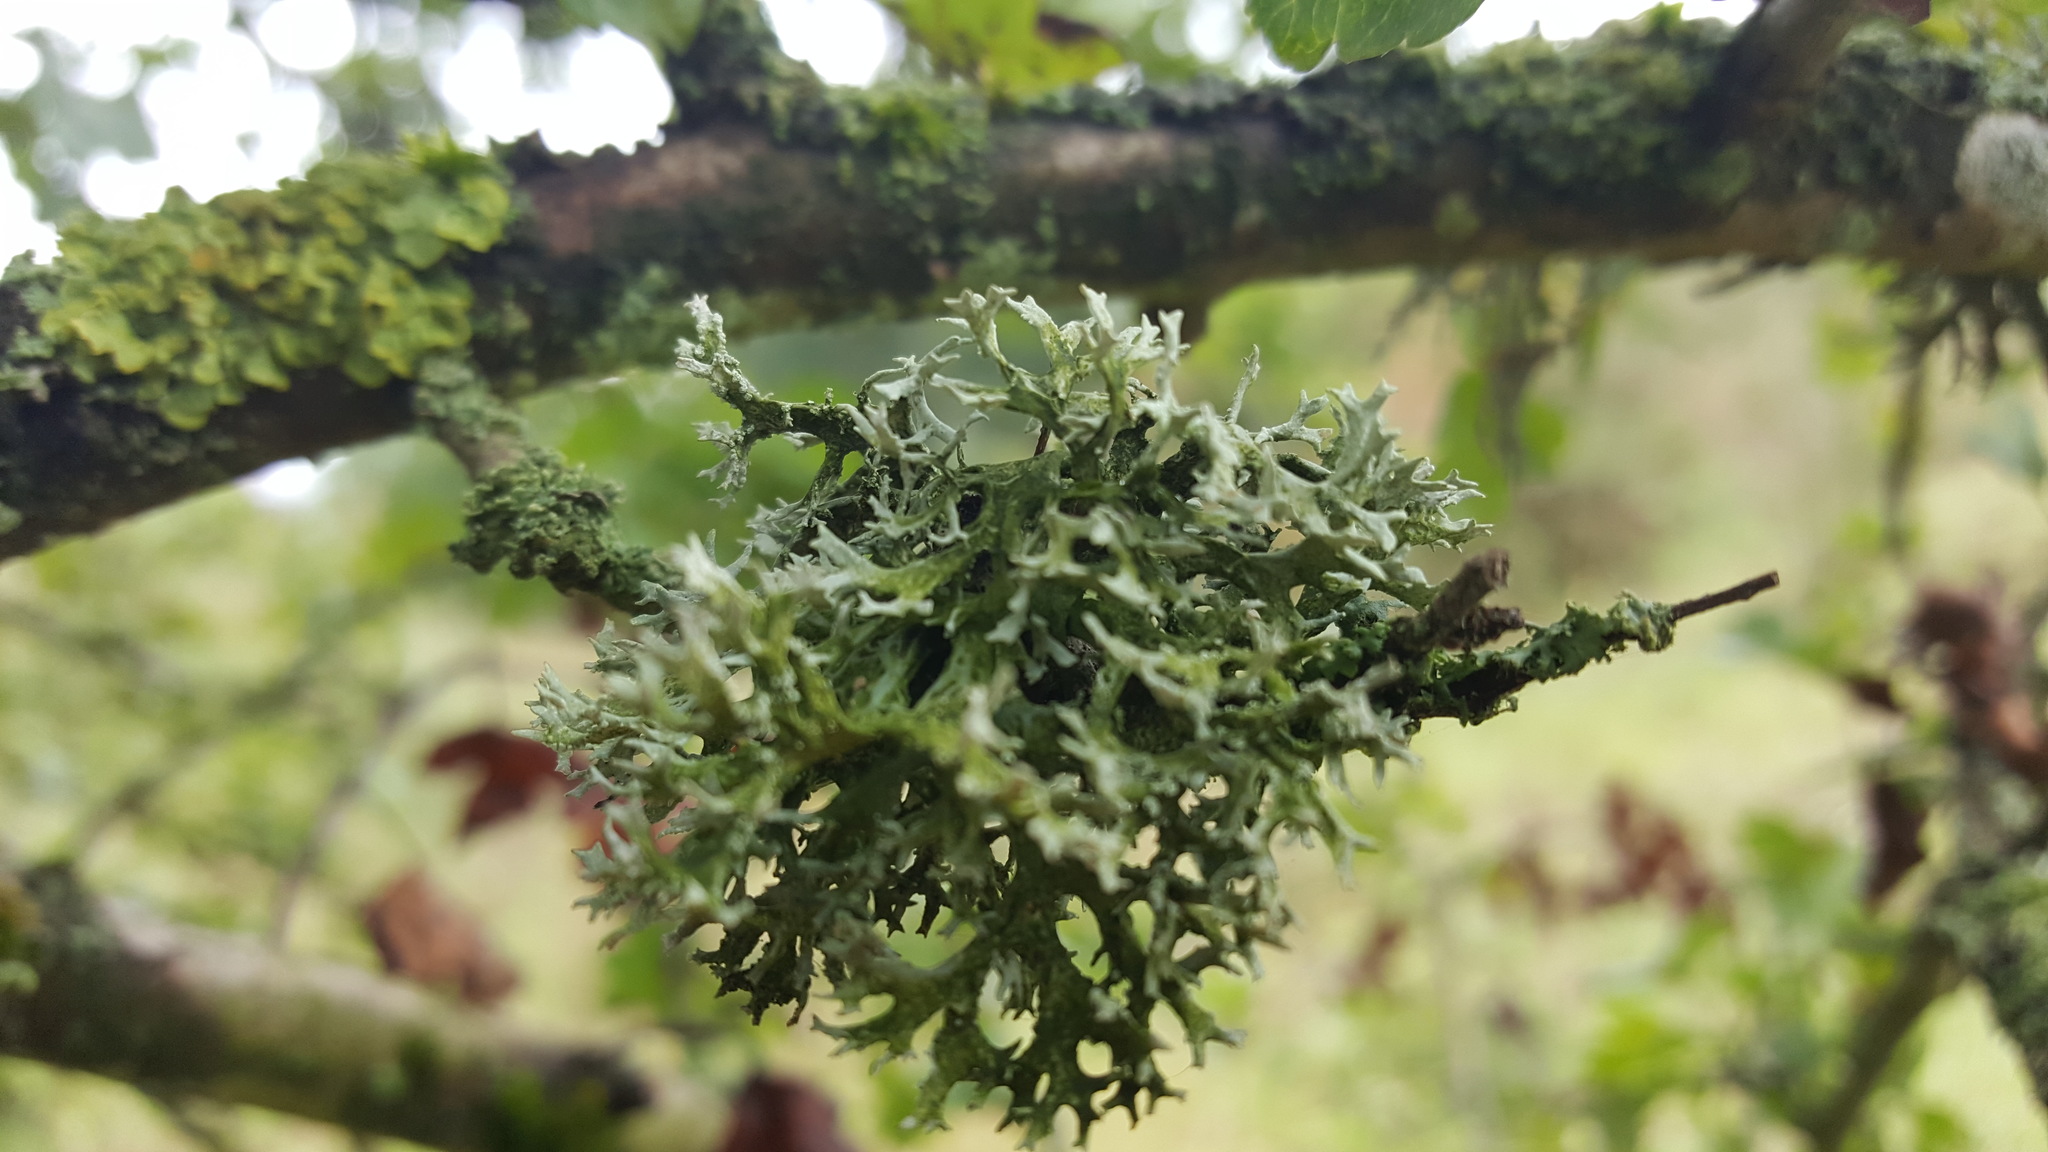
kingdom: Fungi
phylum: Ascomycota
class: Lecanoromycetes
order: Lecanorales
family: Parmeliaceae
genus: Evernia
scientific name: Evernia prunastri
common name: Oak moss
